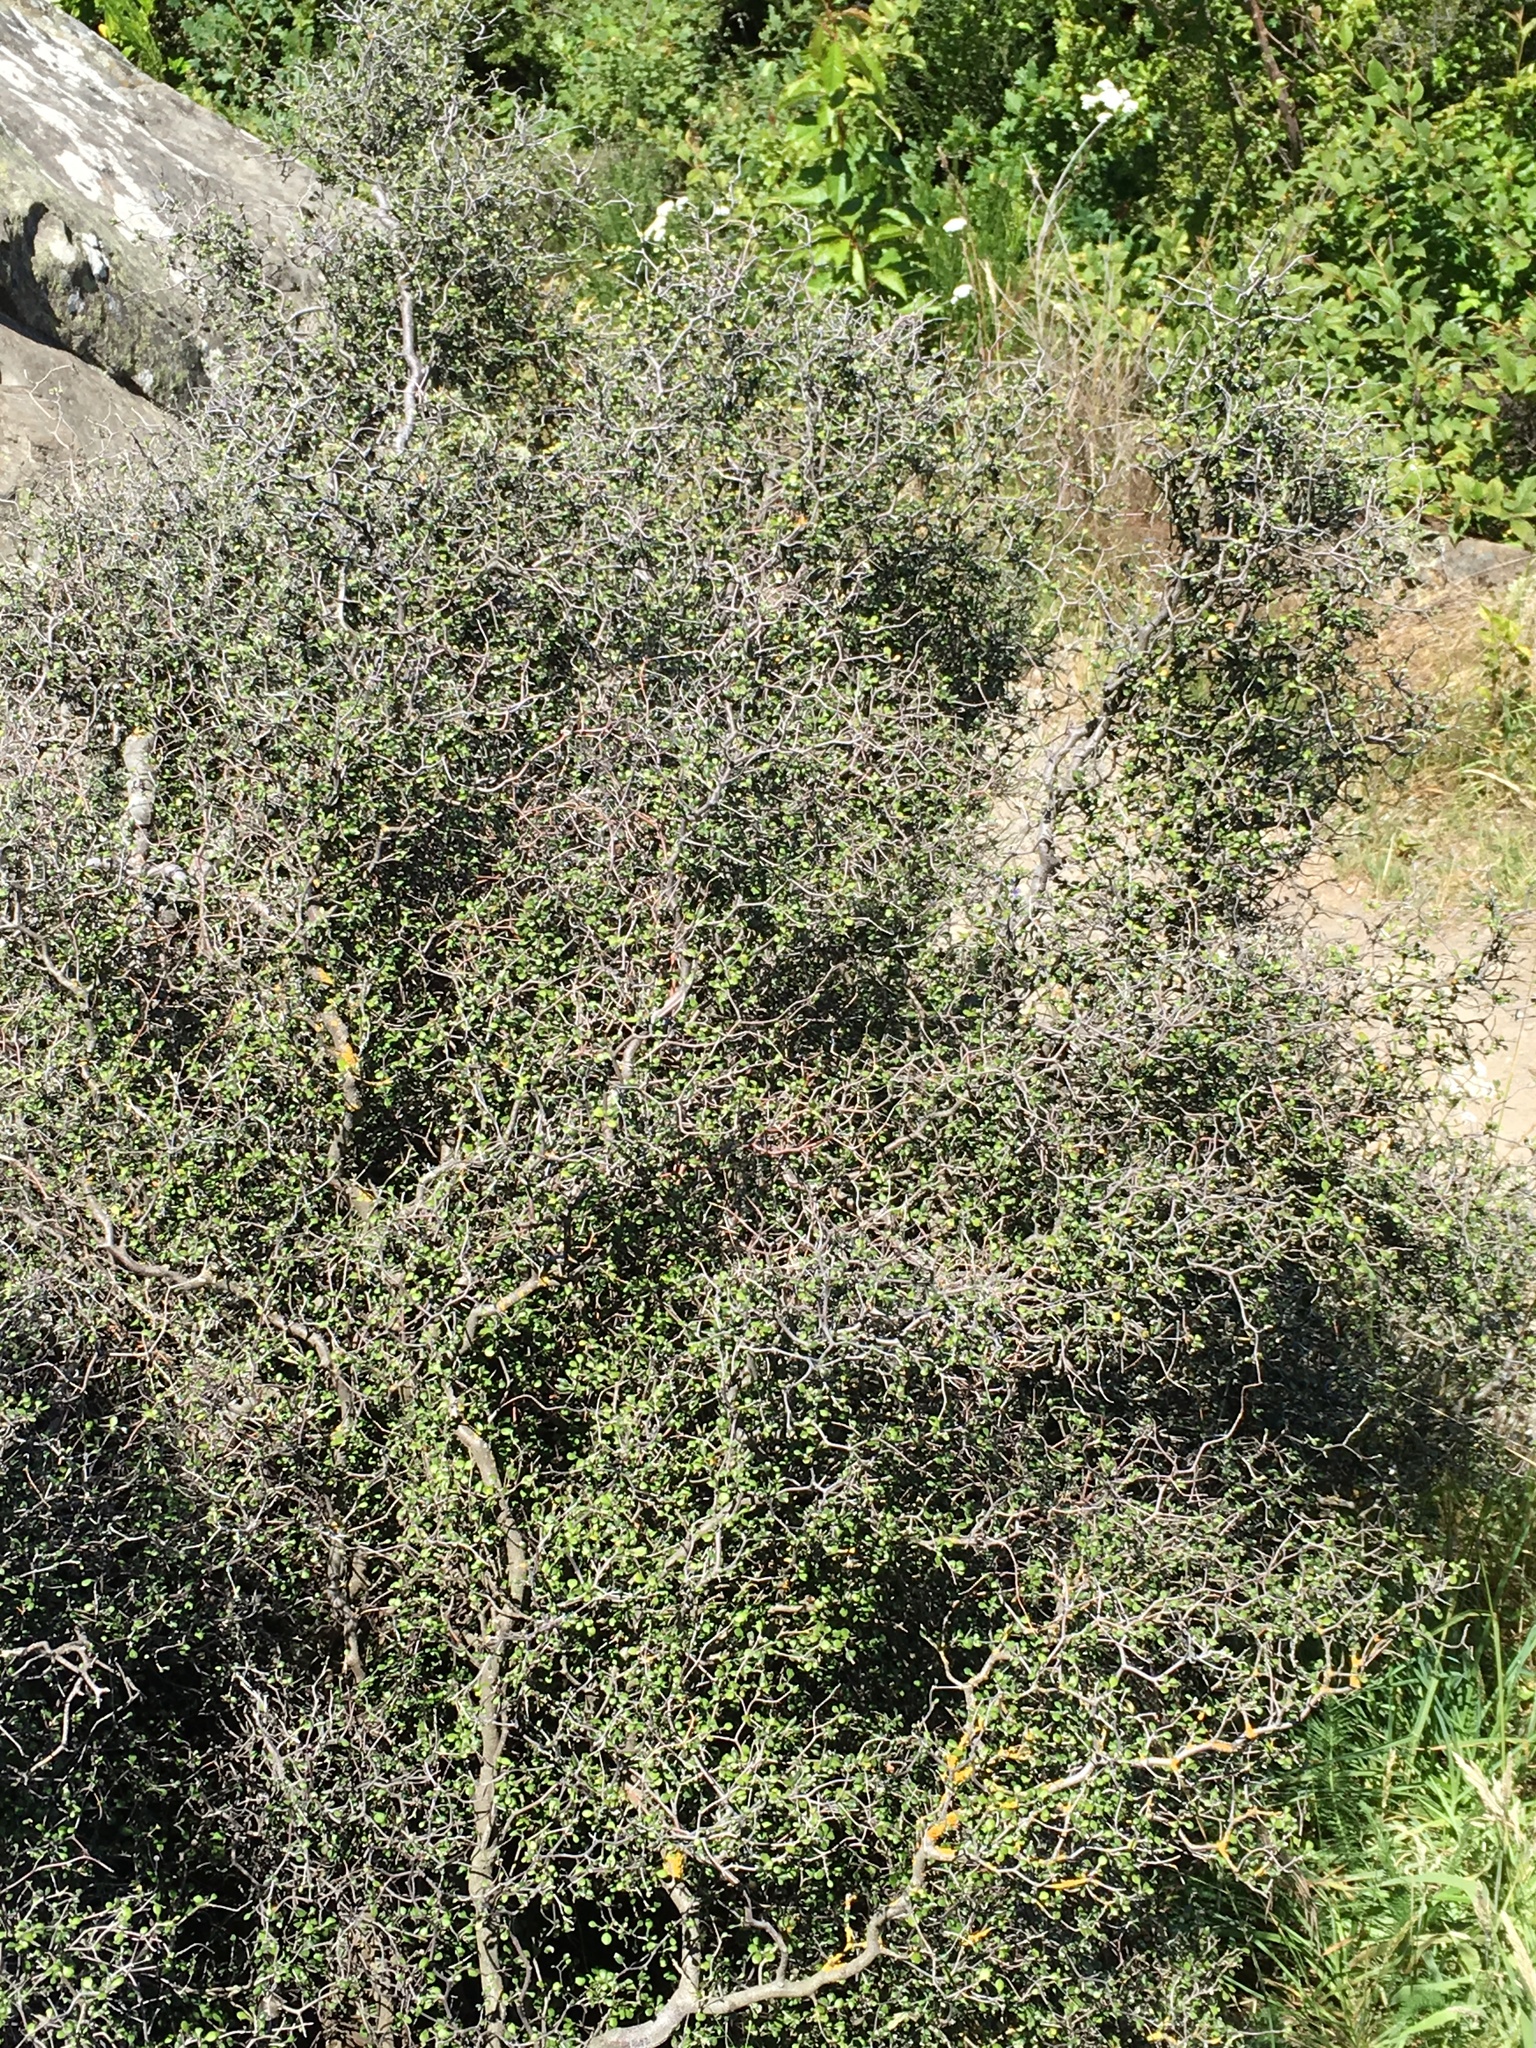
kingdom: Plantae
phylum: Tracheophyta
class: Magnoliopsida
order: Asterales
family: Argophyllaceae
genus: Corokia
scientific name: Corokia cotoneaster
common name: Wire nettingbush
